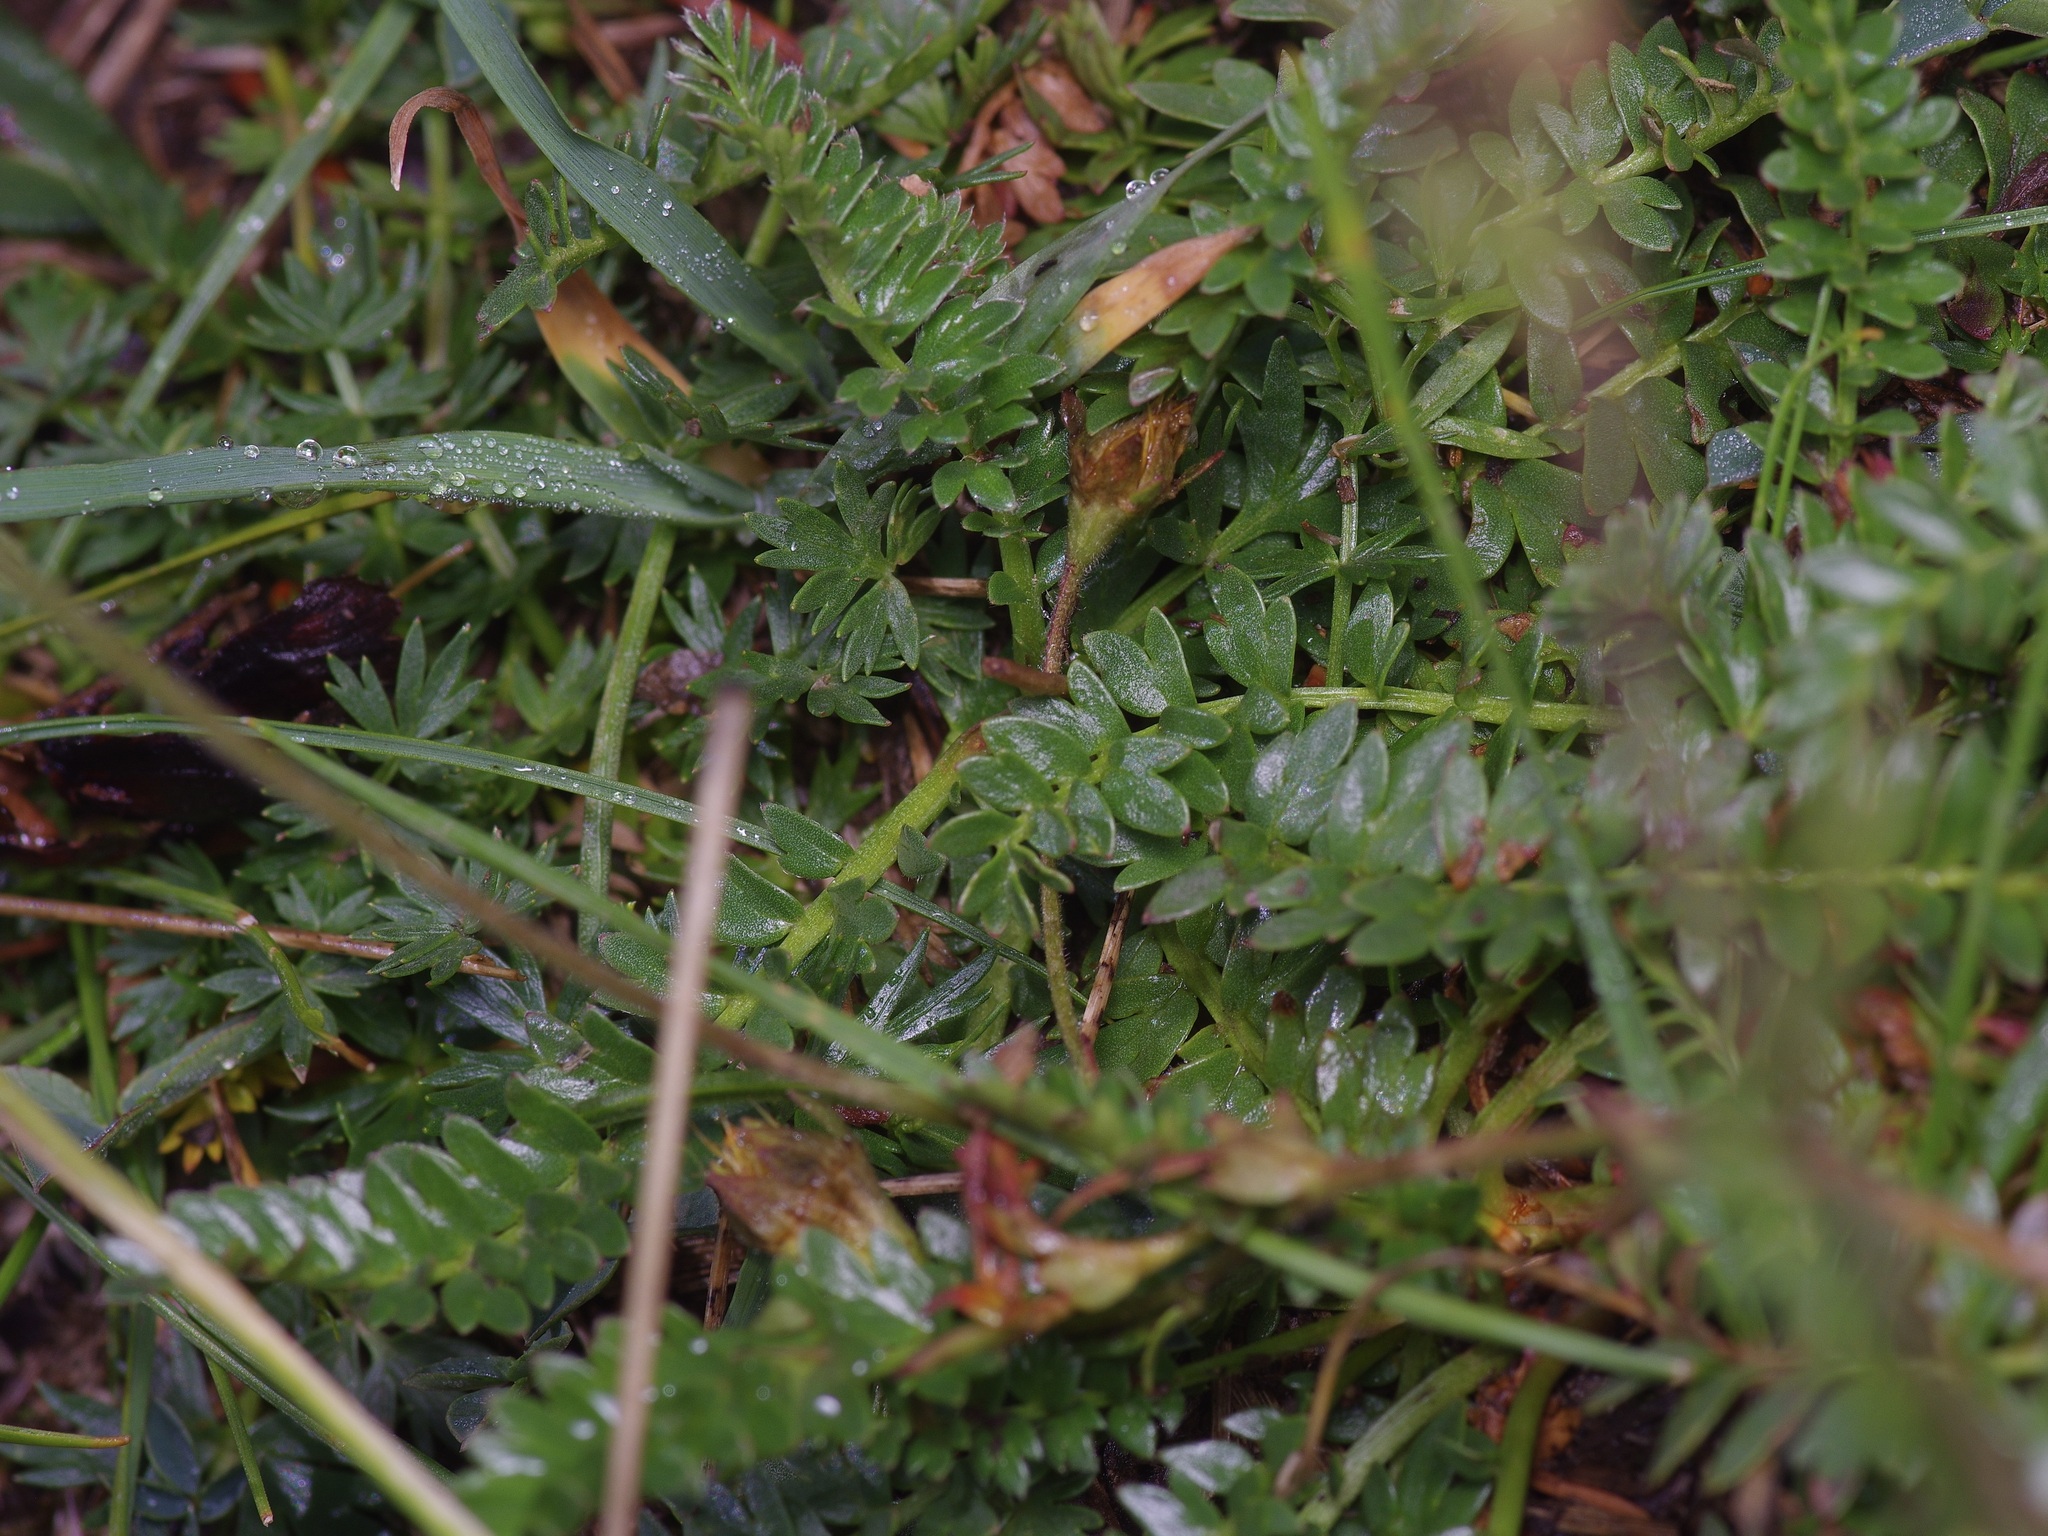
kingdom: Plantae
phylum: Tracheophyta
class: Magnoliopsida
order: Rosales
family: Rosaceae
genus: Geum
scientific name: Geum rossii
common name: Alpine avens
